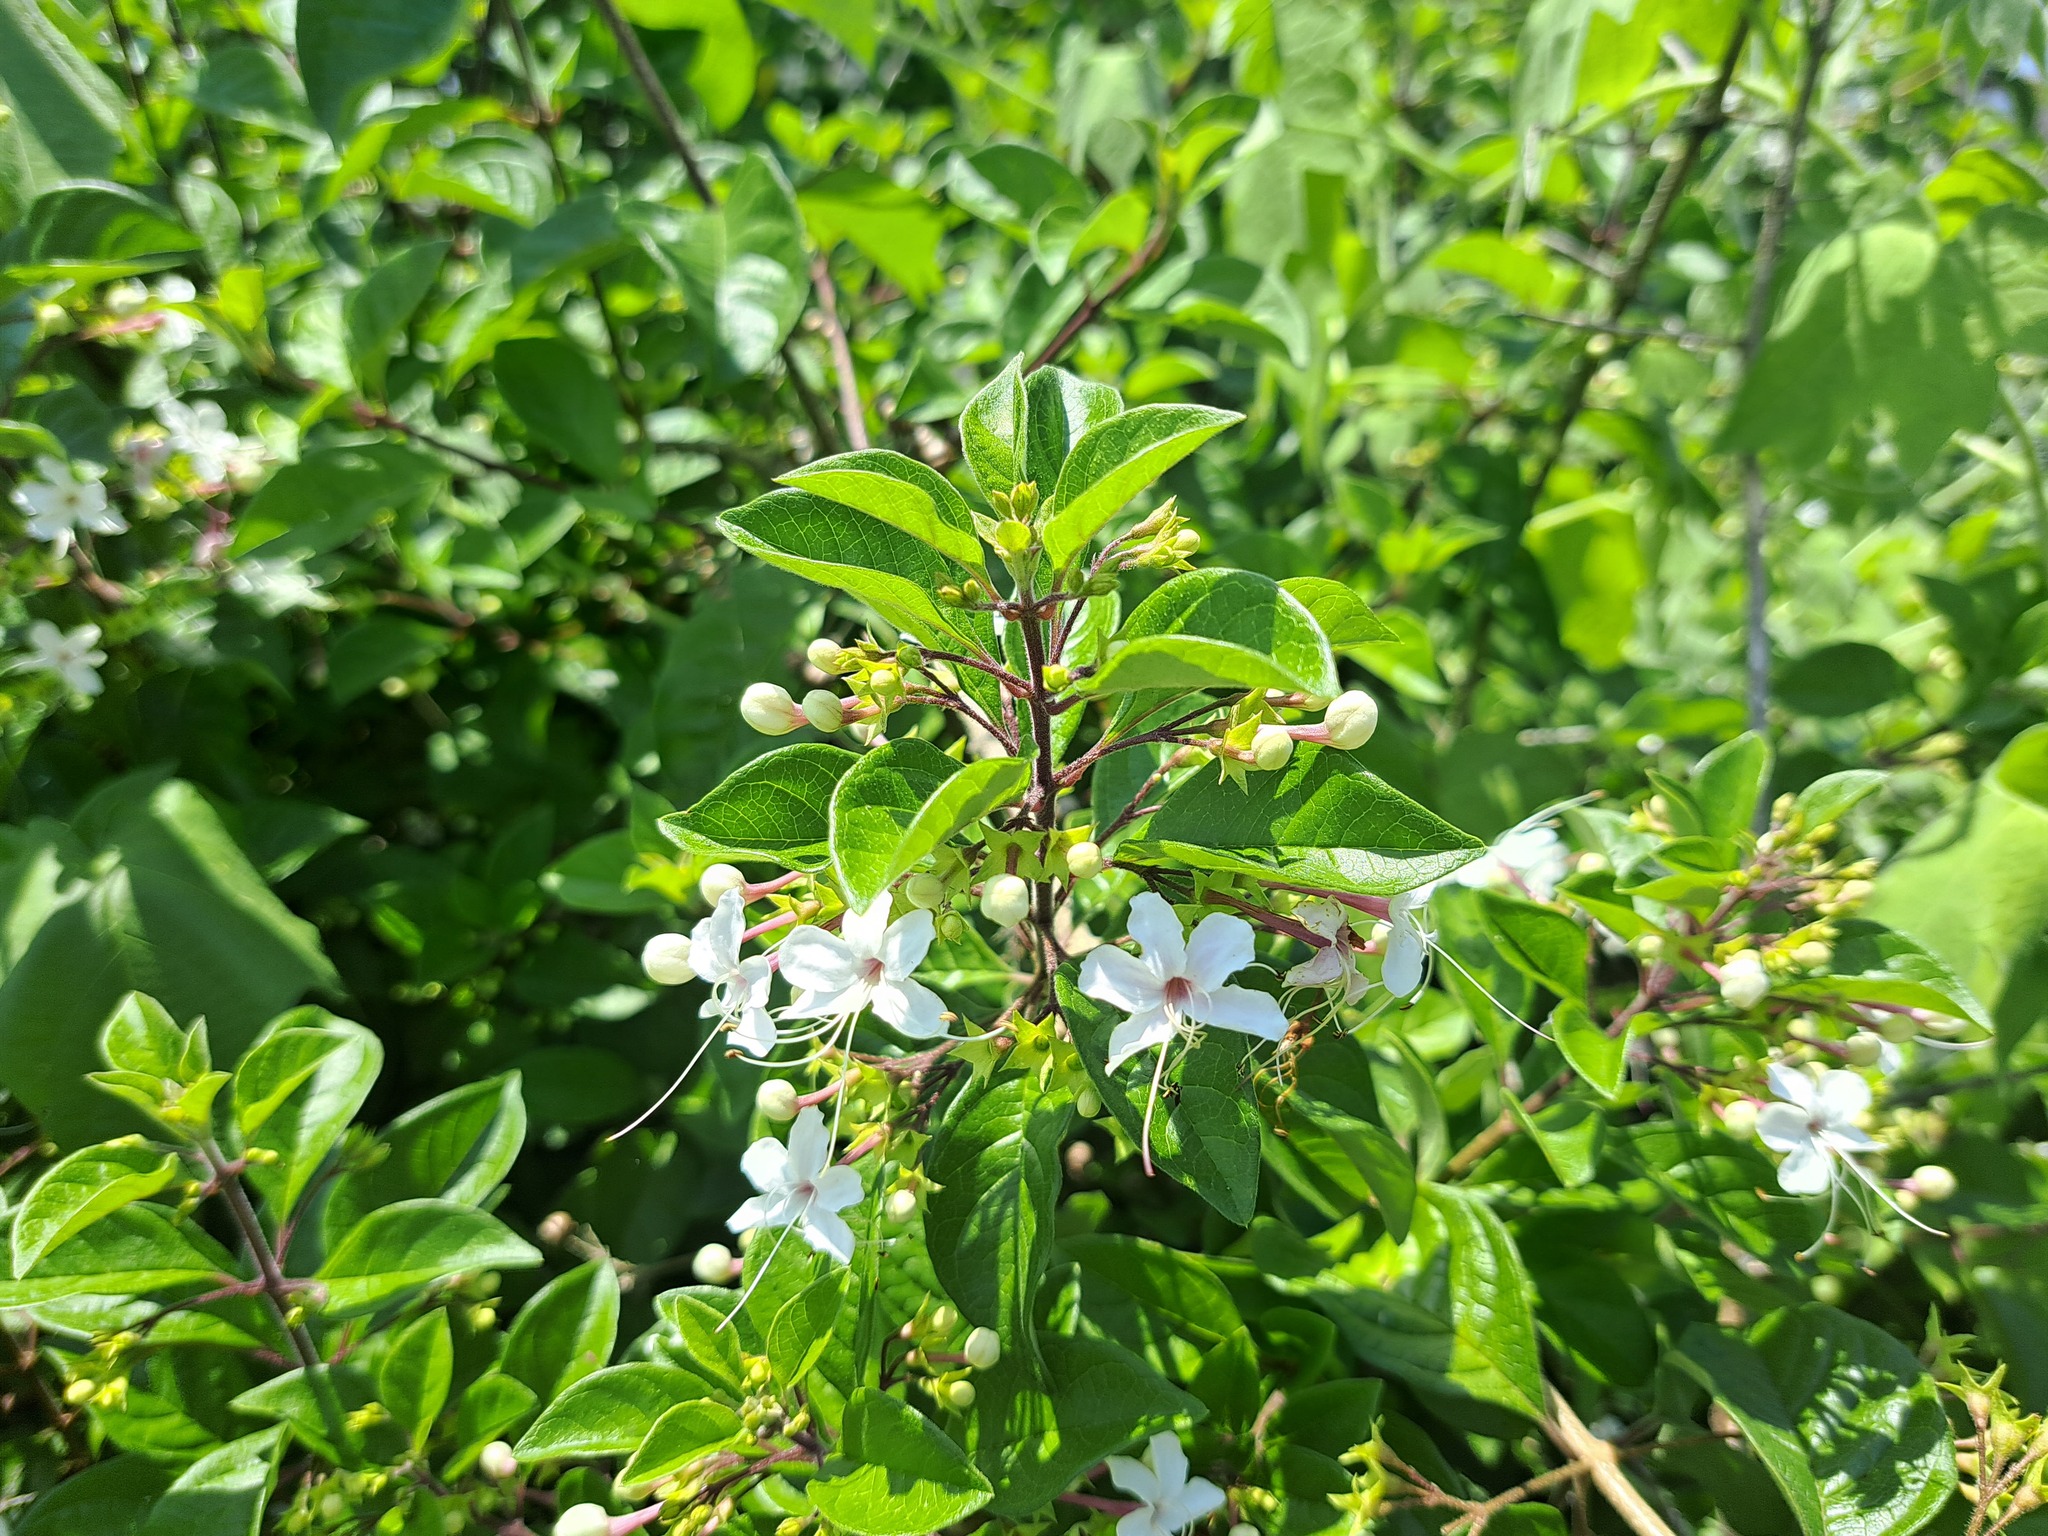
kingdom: Plantae
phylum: Tracheophyta
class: Magnoliopsida
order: Lamiales
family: Lamiaceae
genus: Volkameria
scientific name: Volkameria mollis
